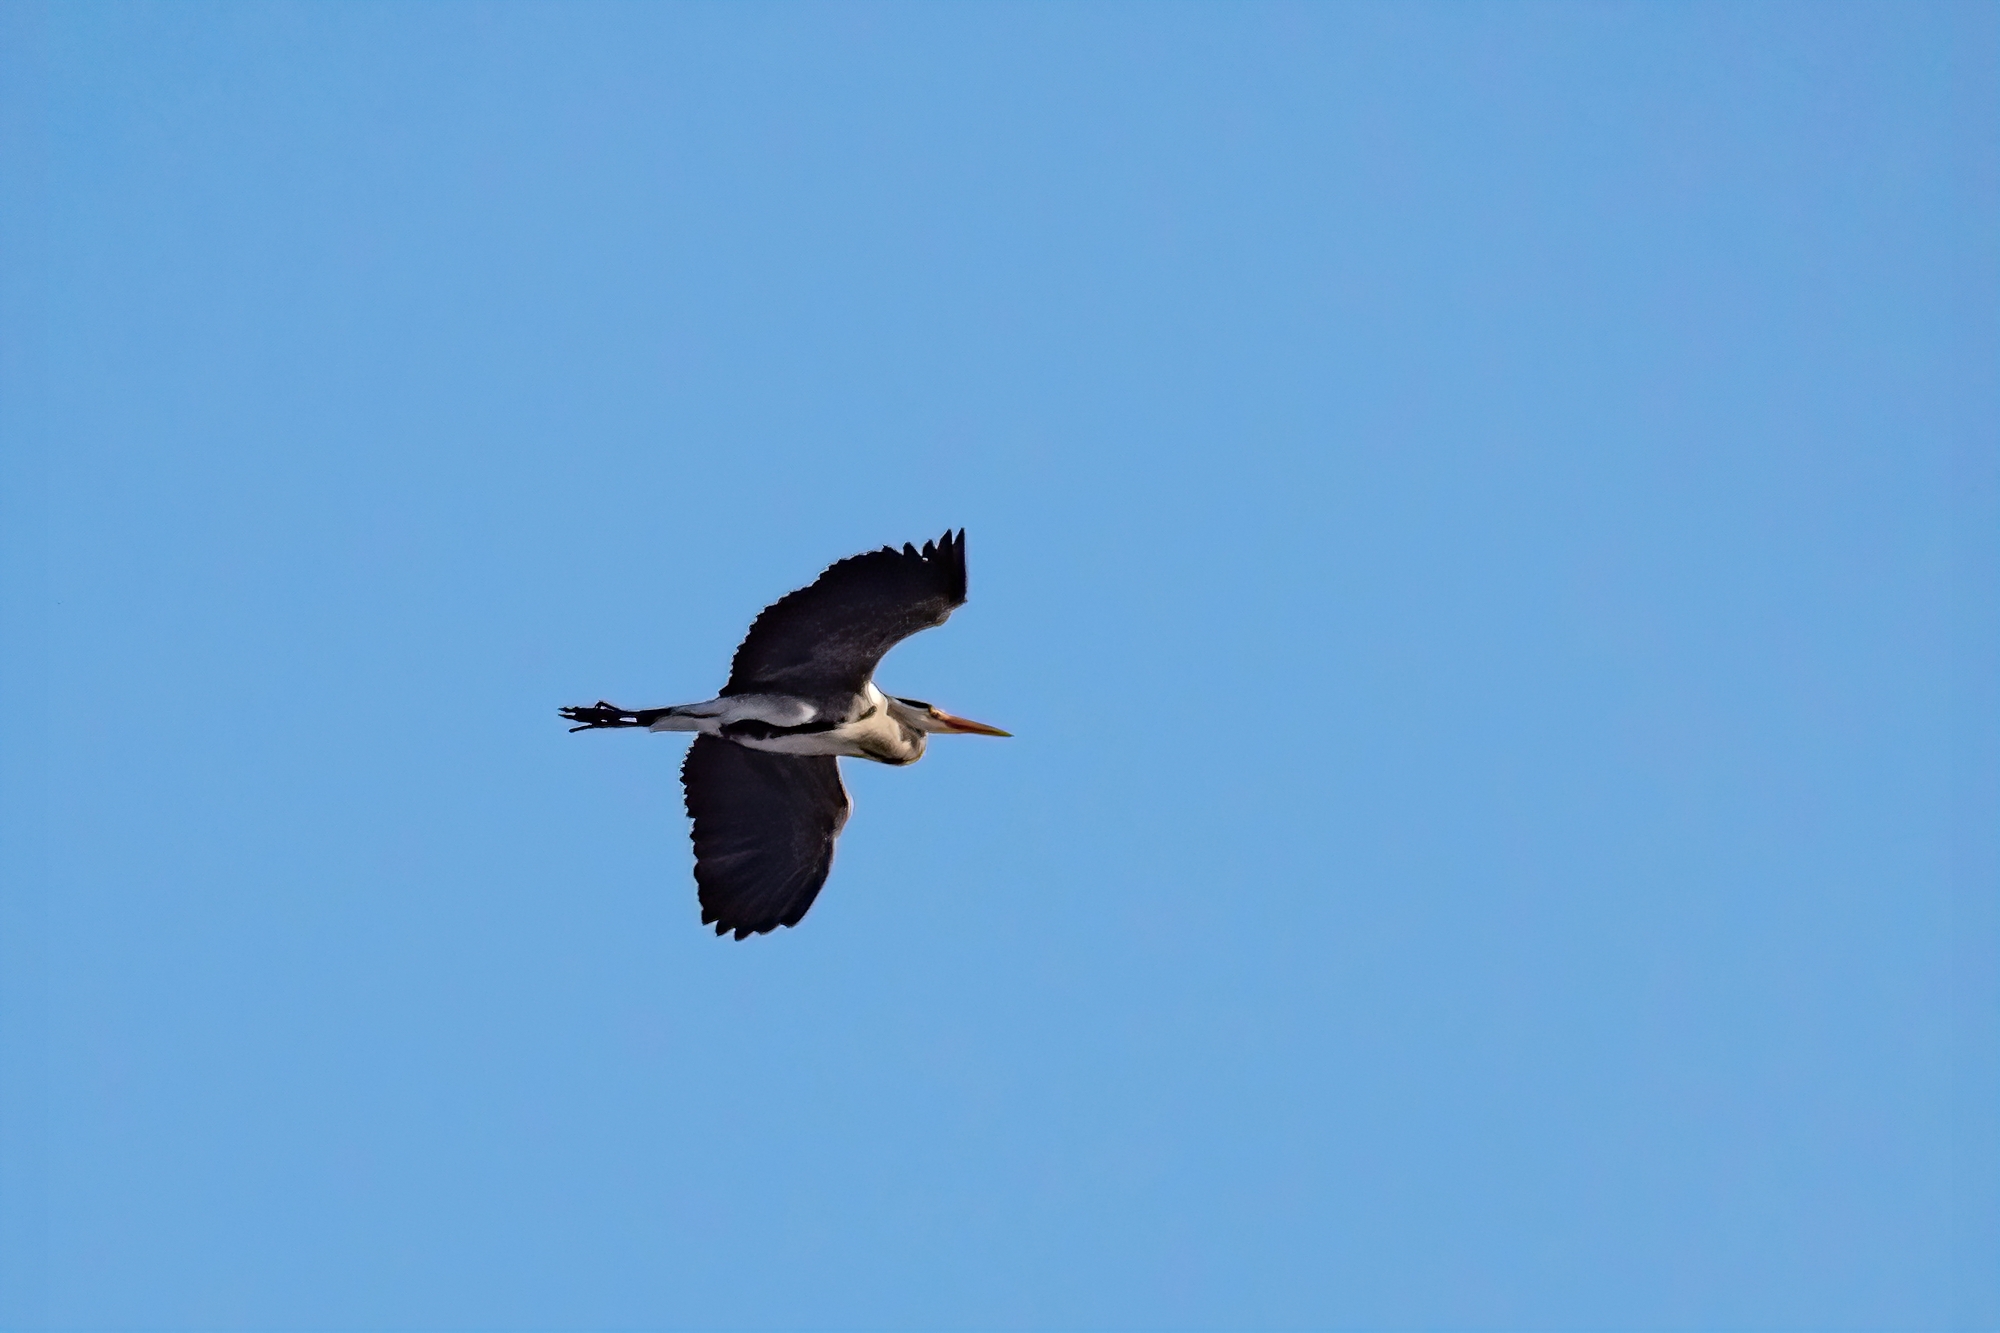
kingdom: Animalia
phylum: Chordata
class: Aves
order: Pelecaniformes
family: Ardeidae
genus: Ardea
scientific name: Ardea cinerea
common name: Grey heron
